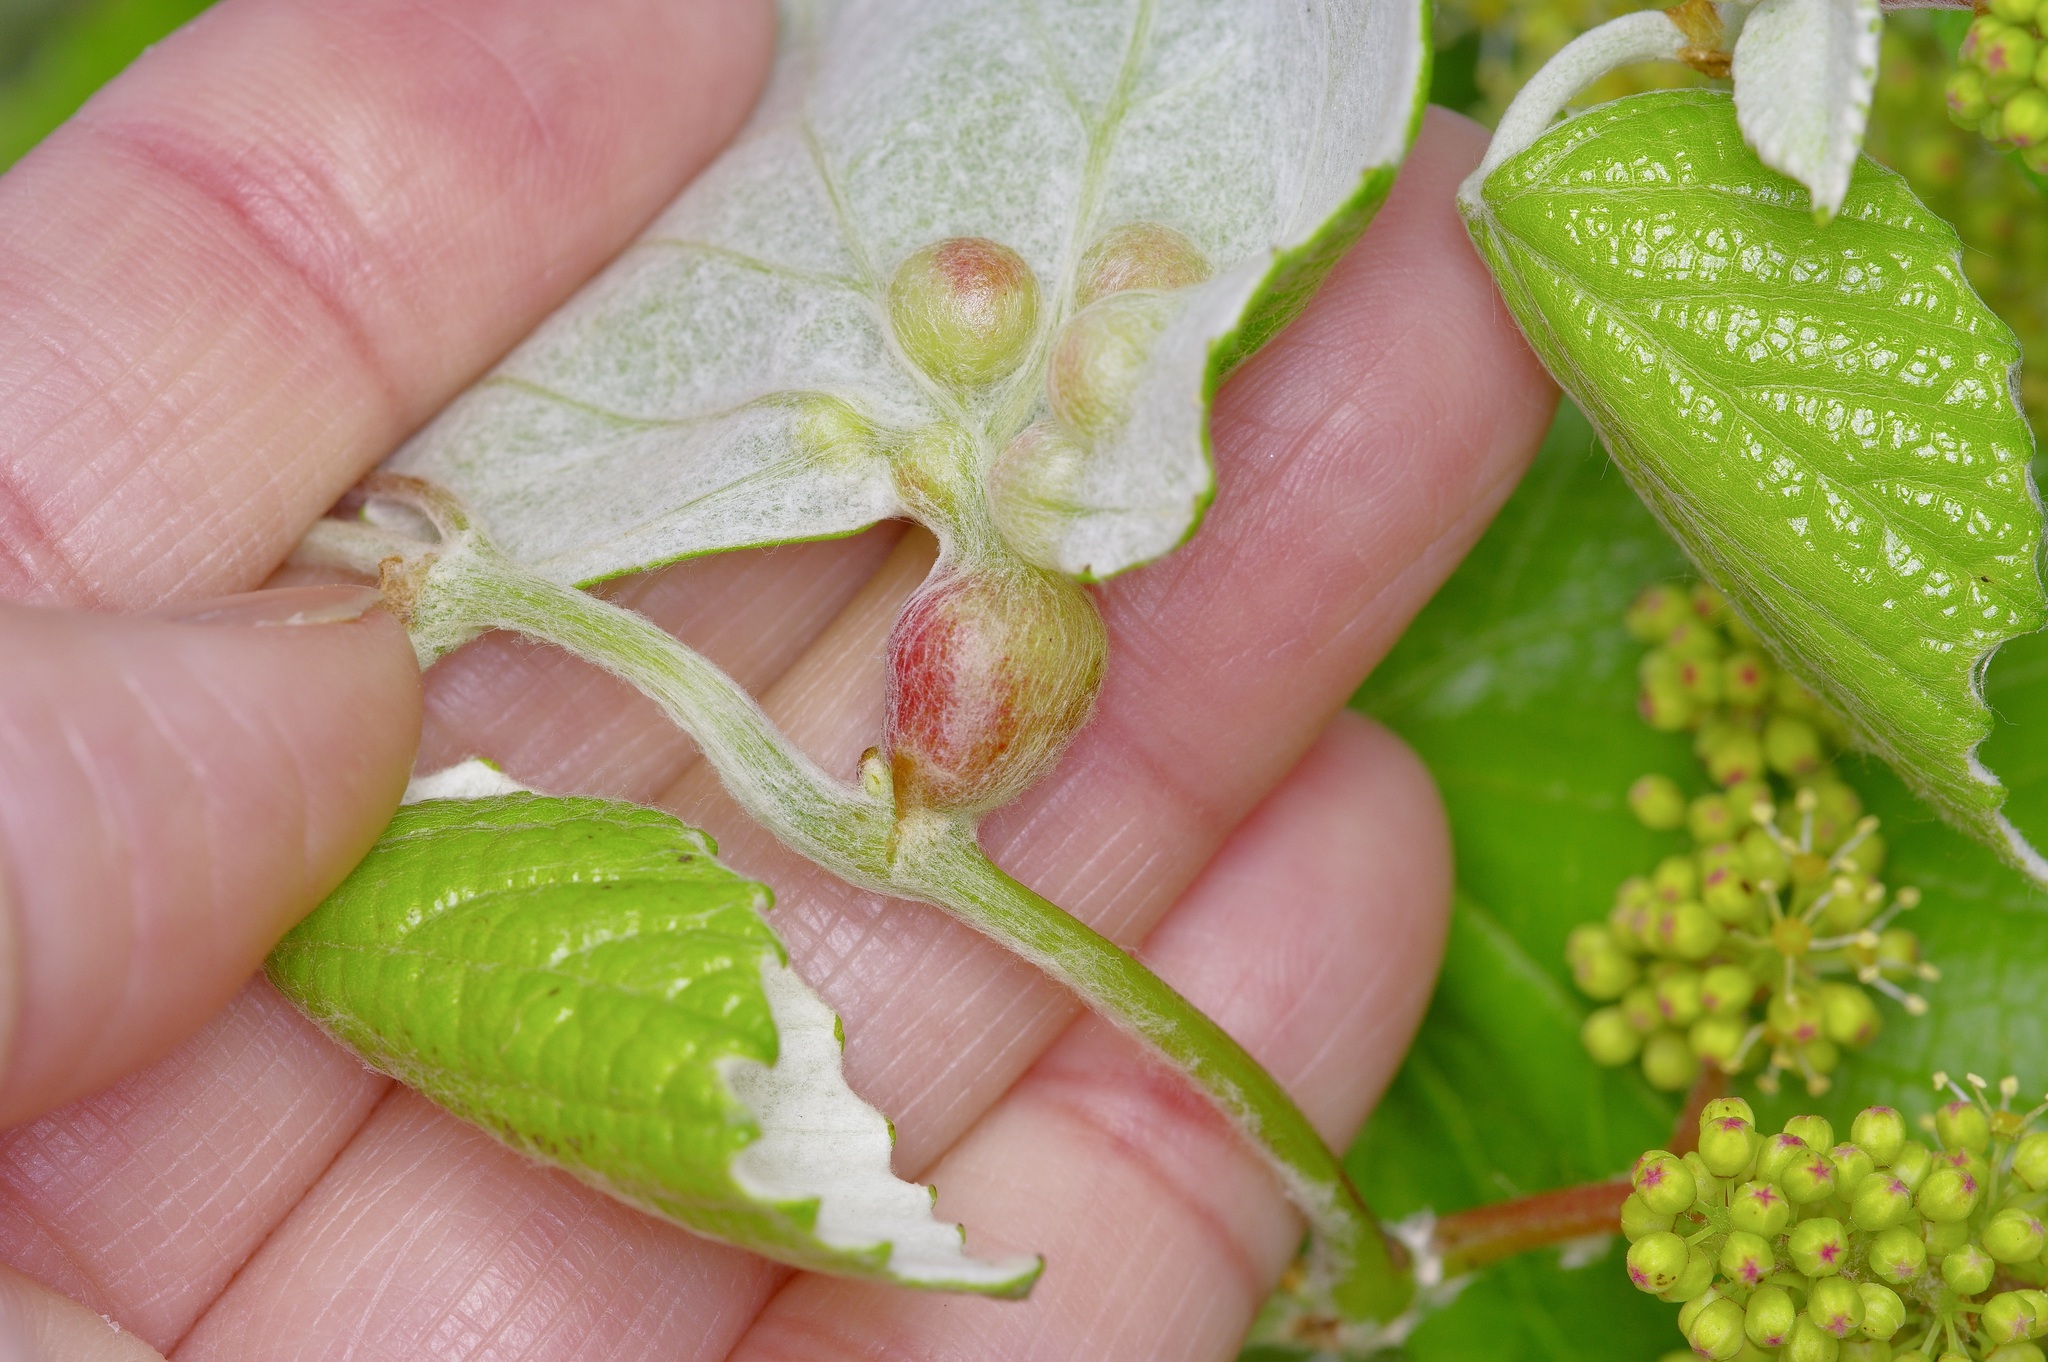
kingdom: Animalia
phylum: Arthropoda
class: Insecta
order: Diptera
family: Cecidomyiidae
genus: Vitisiella
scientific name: Vitisiella brevicauda
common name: Grape tumid gallmaker midge
